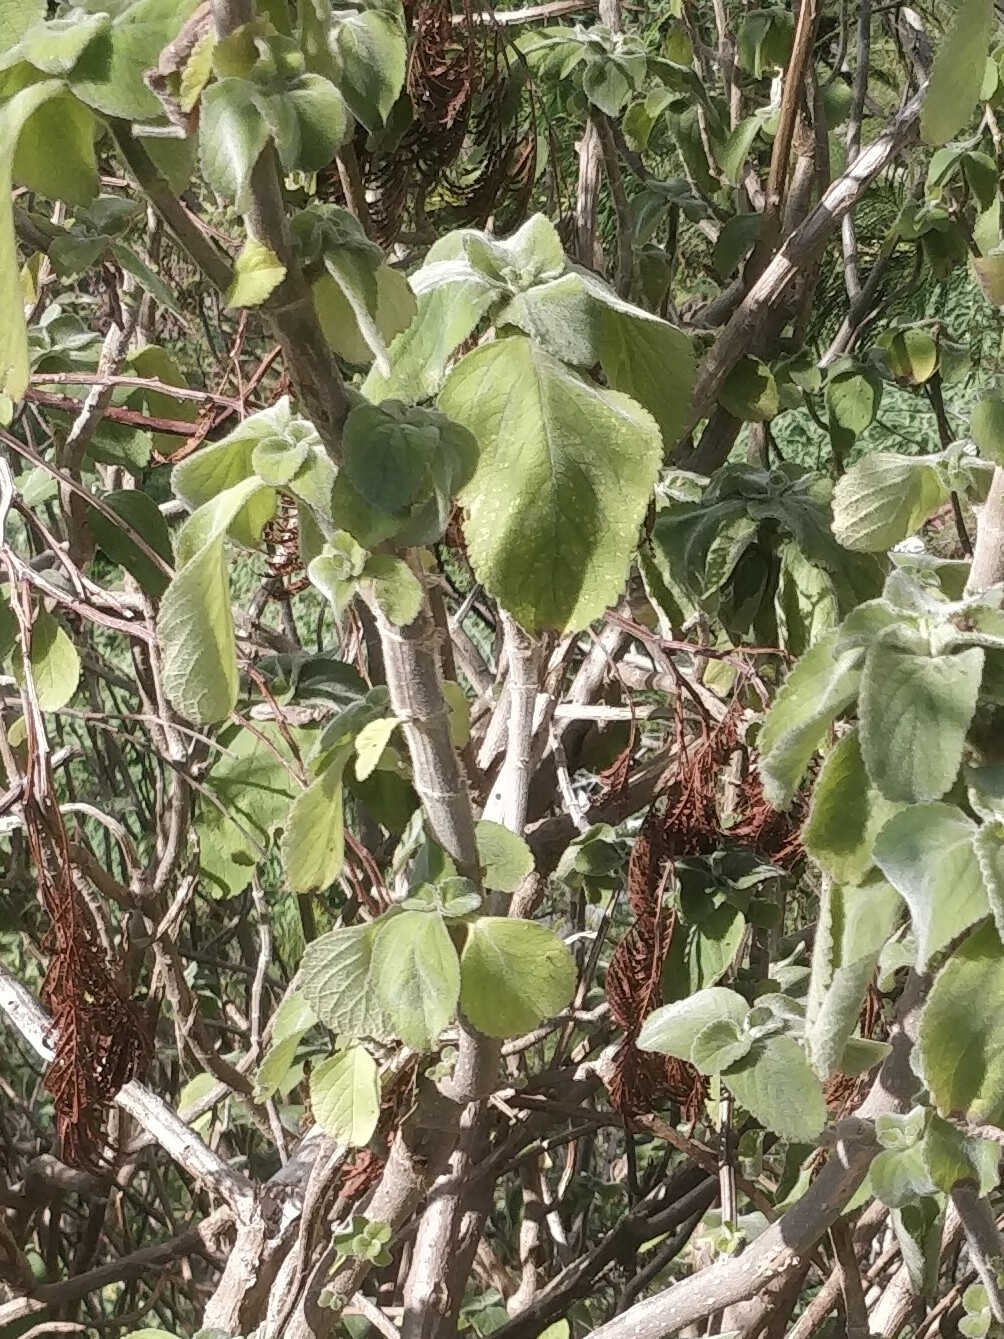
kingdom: Plantae
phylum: Tracheophyta
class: Magnoliopsida
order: Lamiales
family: Lamiaceae
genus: Coleus
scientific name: Coleus barbatus
